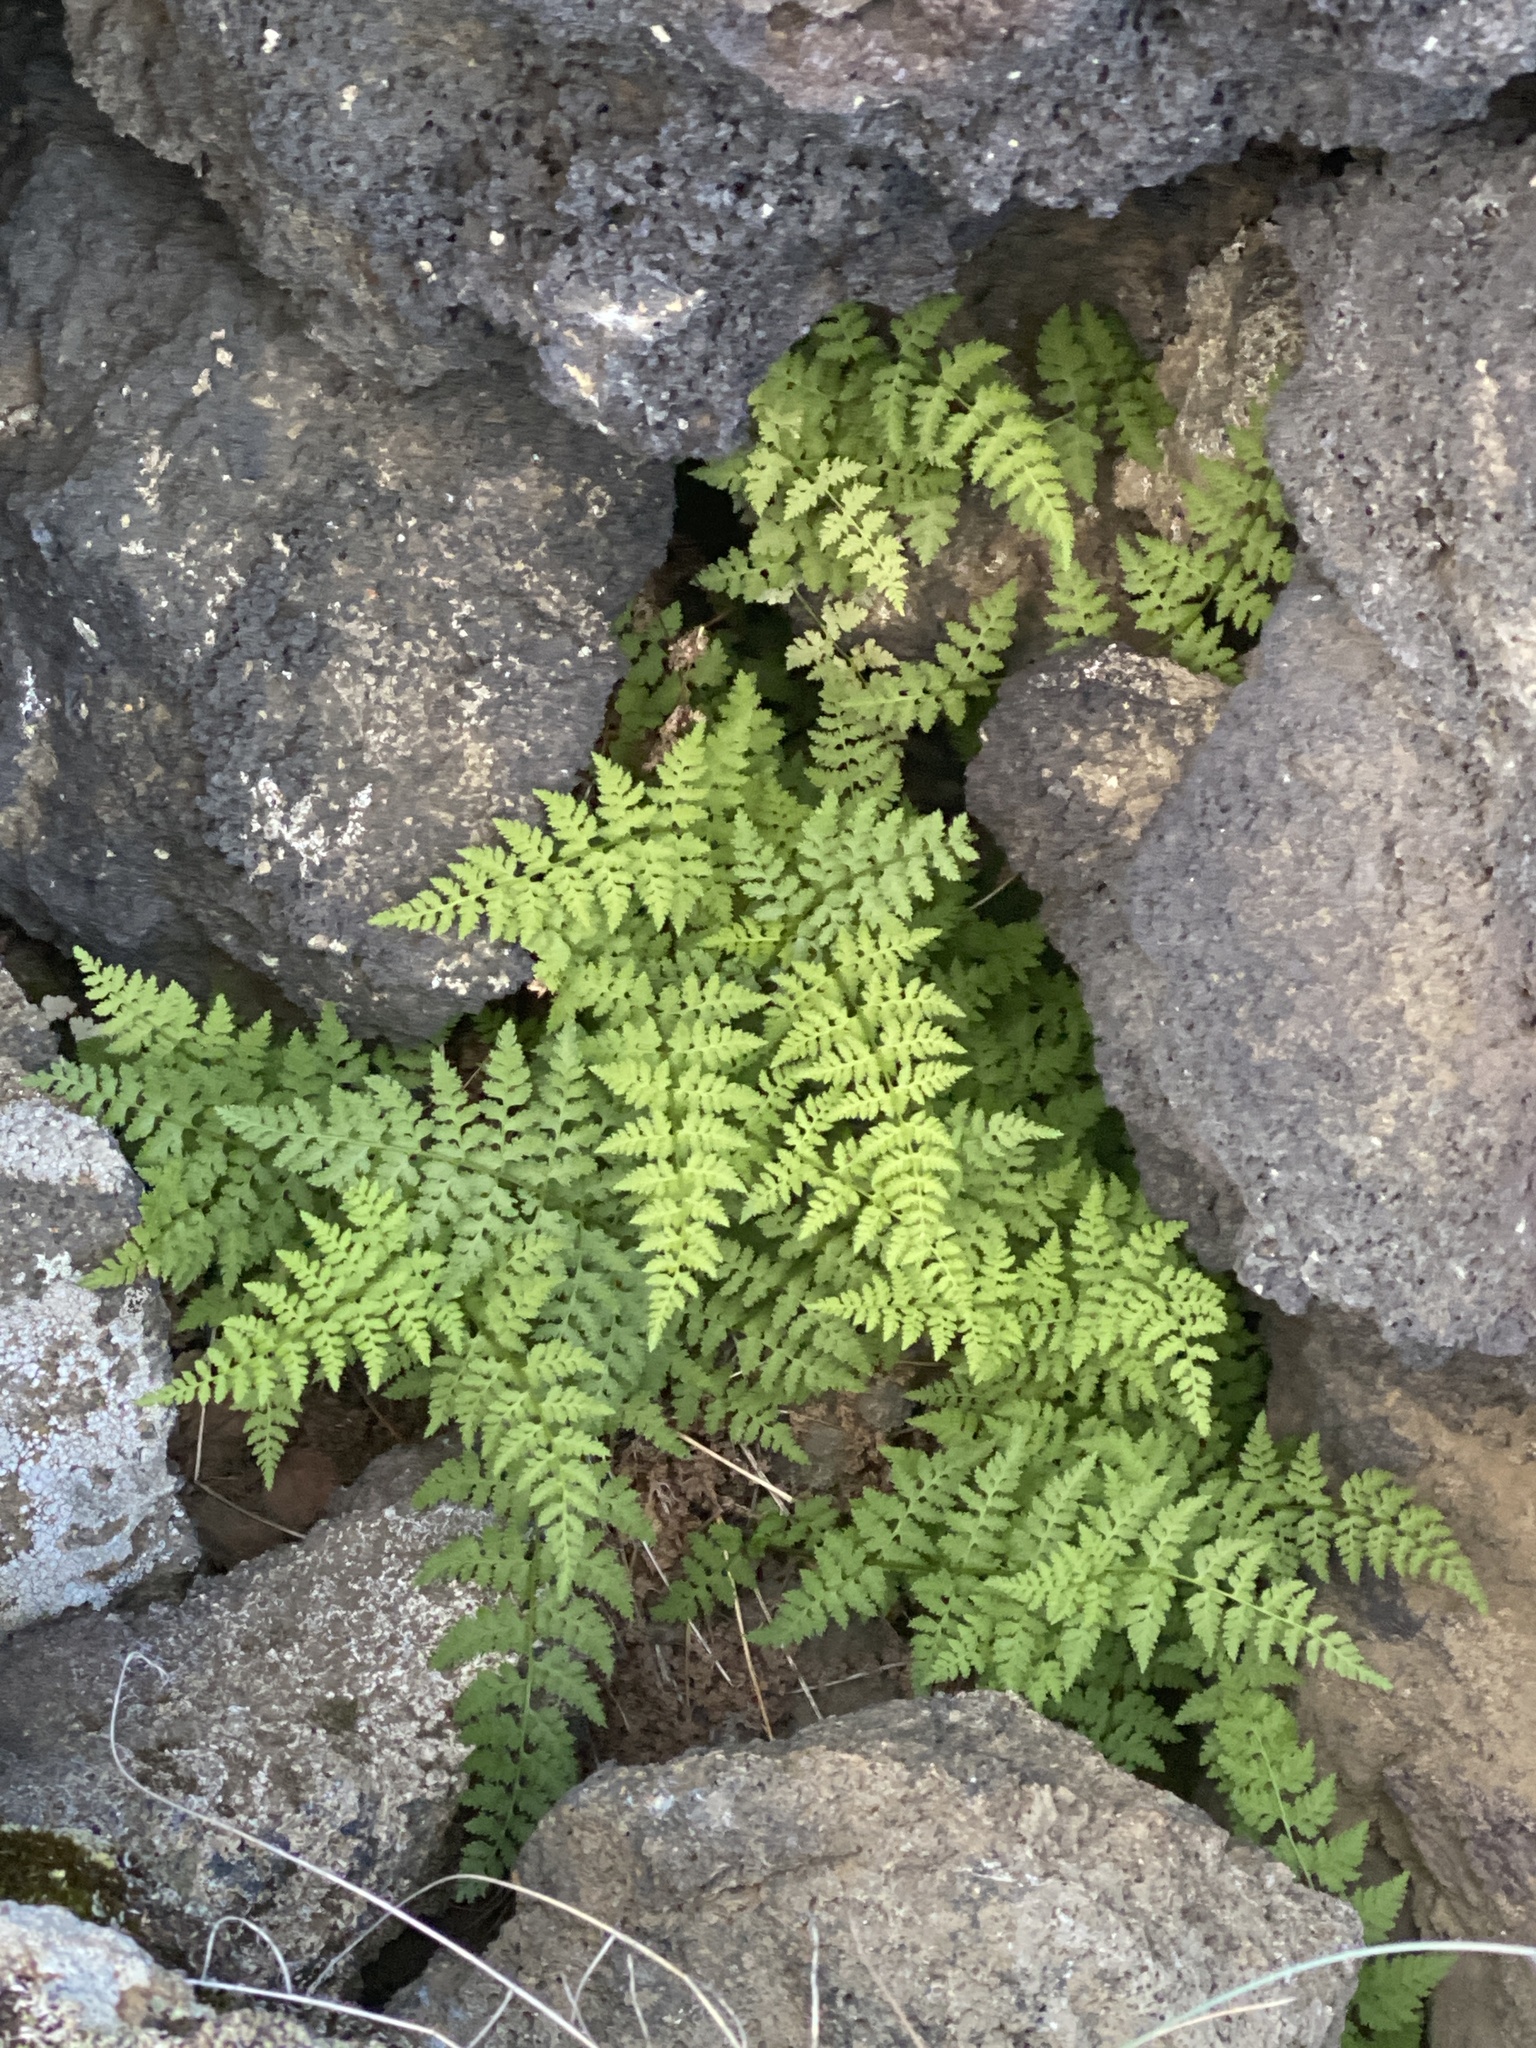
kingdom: Plantae
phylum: Tracheophyta
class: Polypodiopsida
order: Polypodiales
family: Cystopteridaceae
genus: Cystopteris
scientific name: Cystopteris fragilis
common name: Brittle bladder fern
